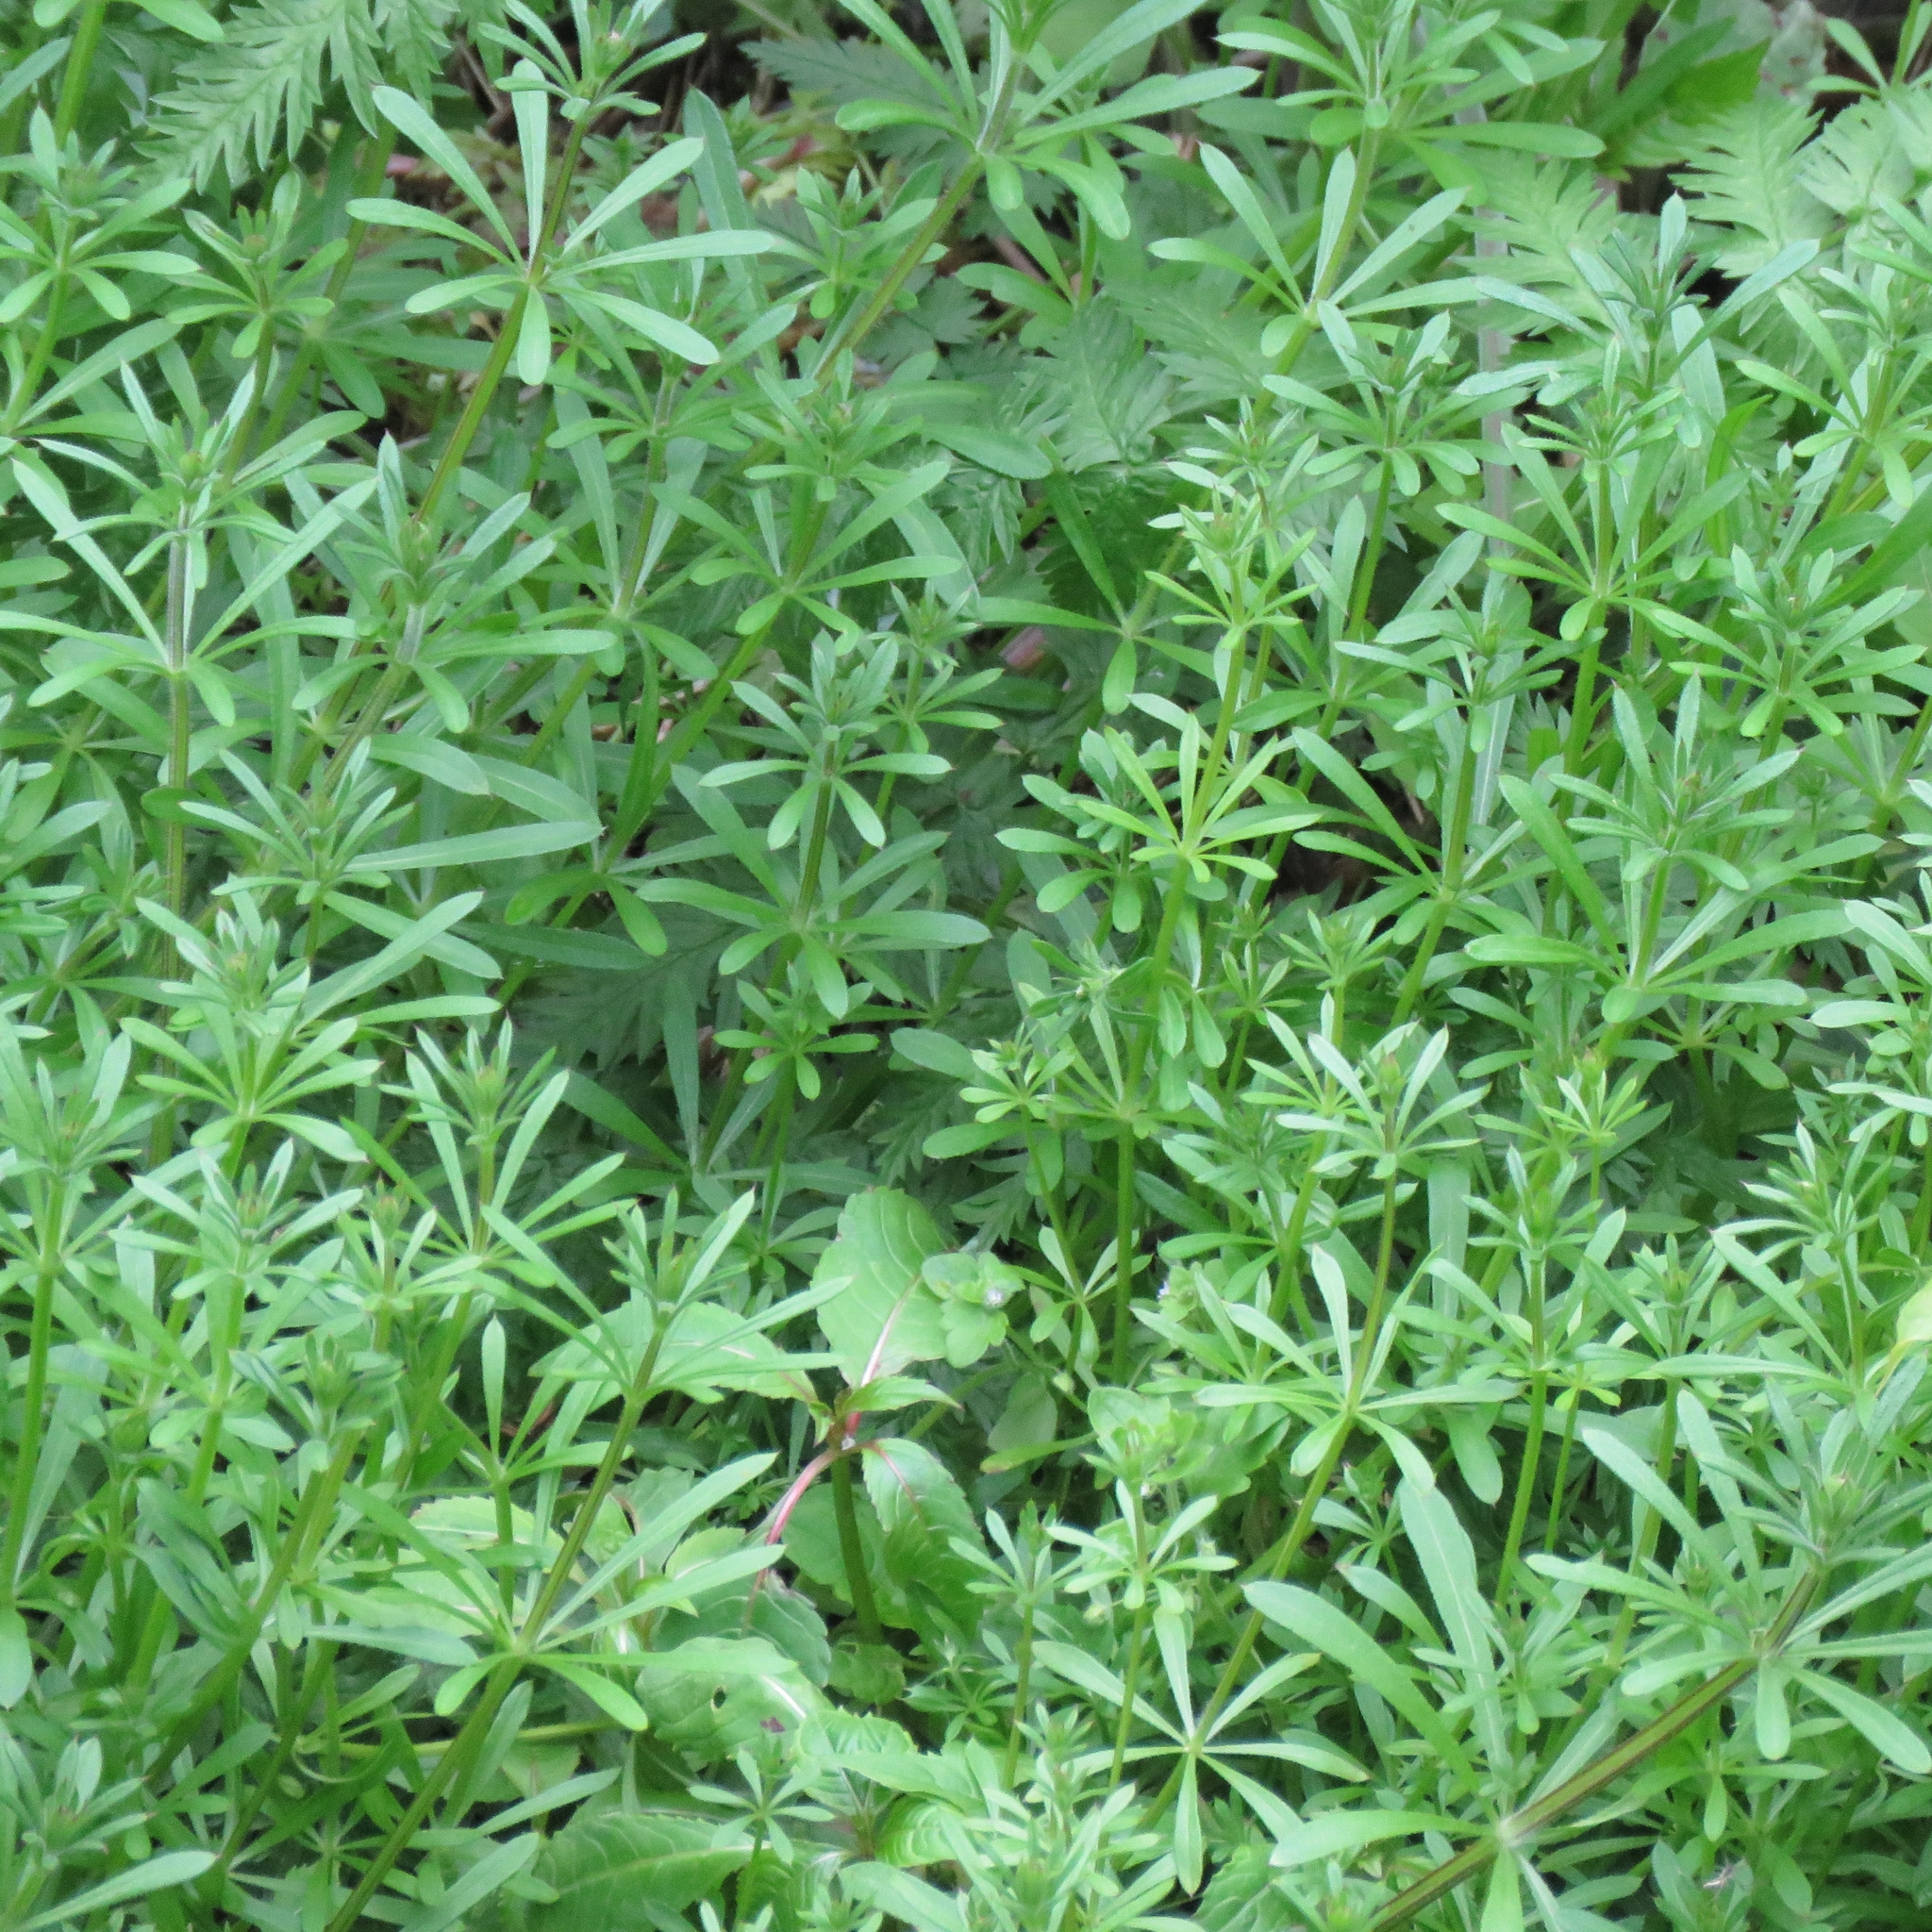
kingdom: Plantae
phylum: Tracheophyta
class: Magnoliopsida
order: Gentianales
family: Rubiaceae
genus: Galium
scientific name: Galium aparine
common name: Cleavers
